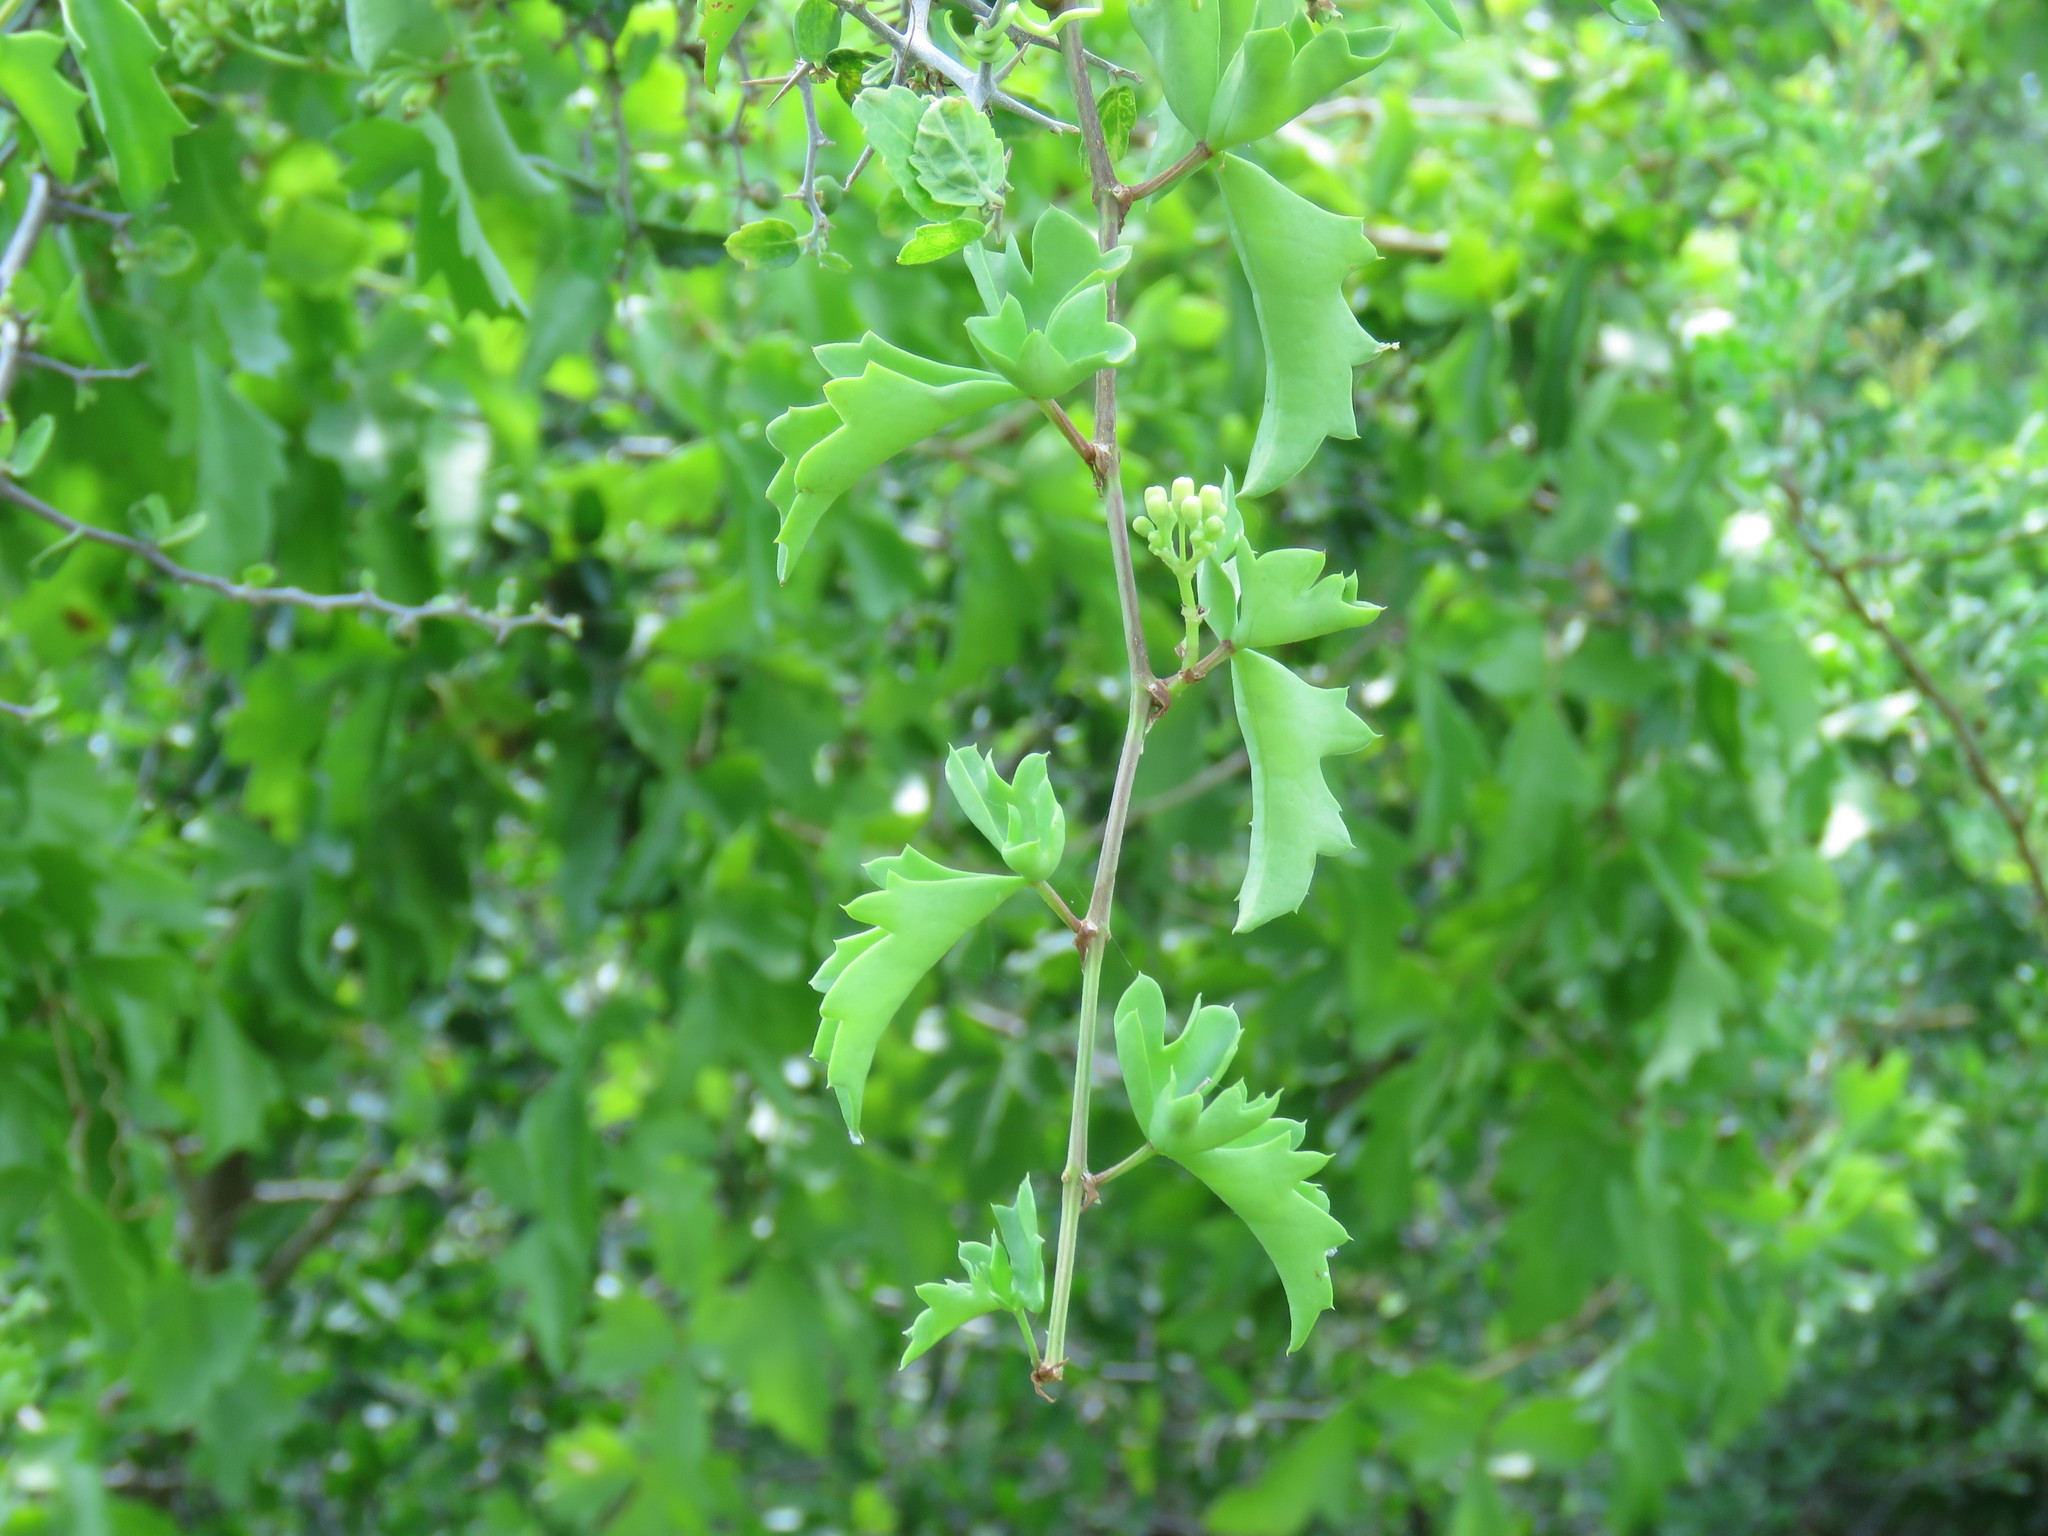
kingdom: Plantae
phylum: Tracheophyta
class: Magnoliopsida
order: Vitales
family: Vitaceae
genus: Cissus
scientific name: Cissus trifoliata
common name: Vine-sorrel
